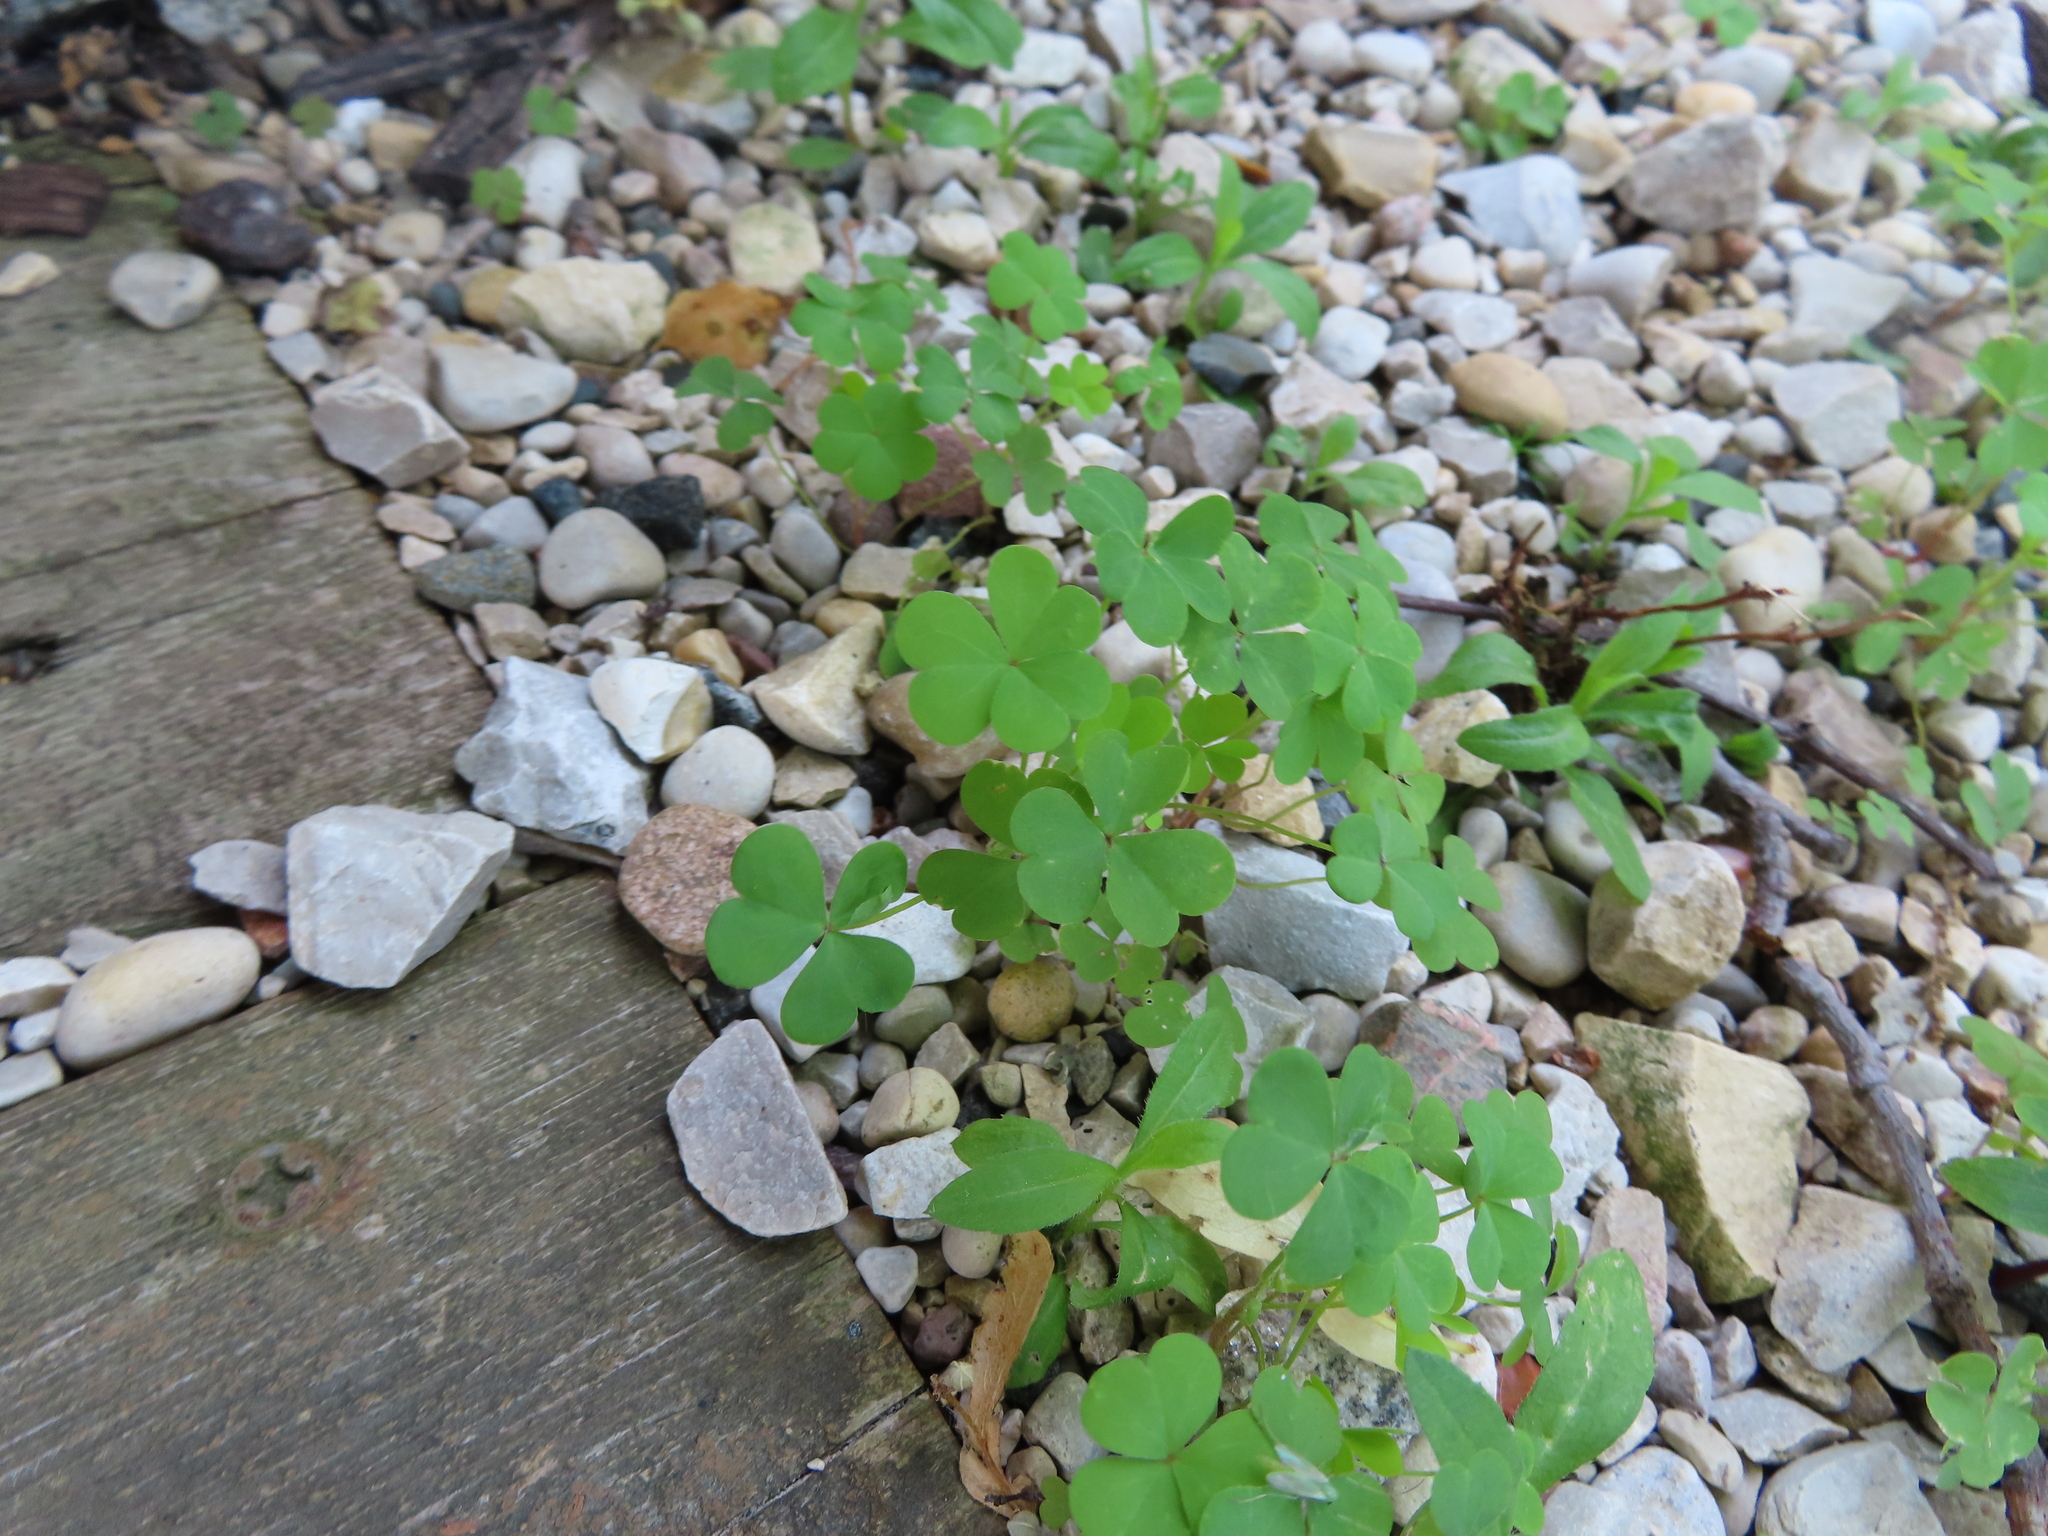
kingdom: Plantae
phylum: Tracheophyta
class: Magnoliopsida
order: Oxalidales
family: Oxalidaceae
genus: Oxalis
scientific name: Oxalis stricta
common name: Upright yellow-sorrel
